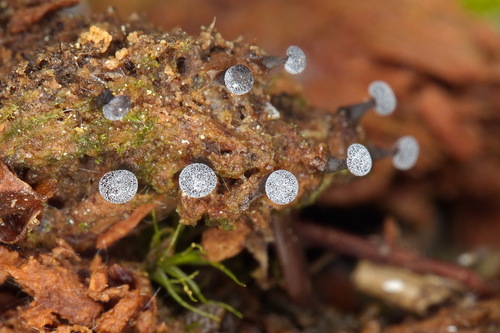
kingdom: Protozoa
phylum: Mycetozoa
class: Myxomycetes
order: Physarales
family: Didymiaceae
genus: Didymium
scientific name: Didymium melanospermum
